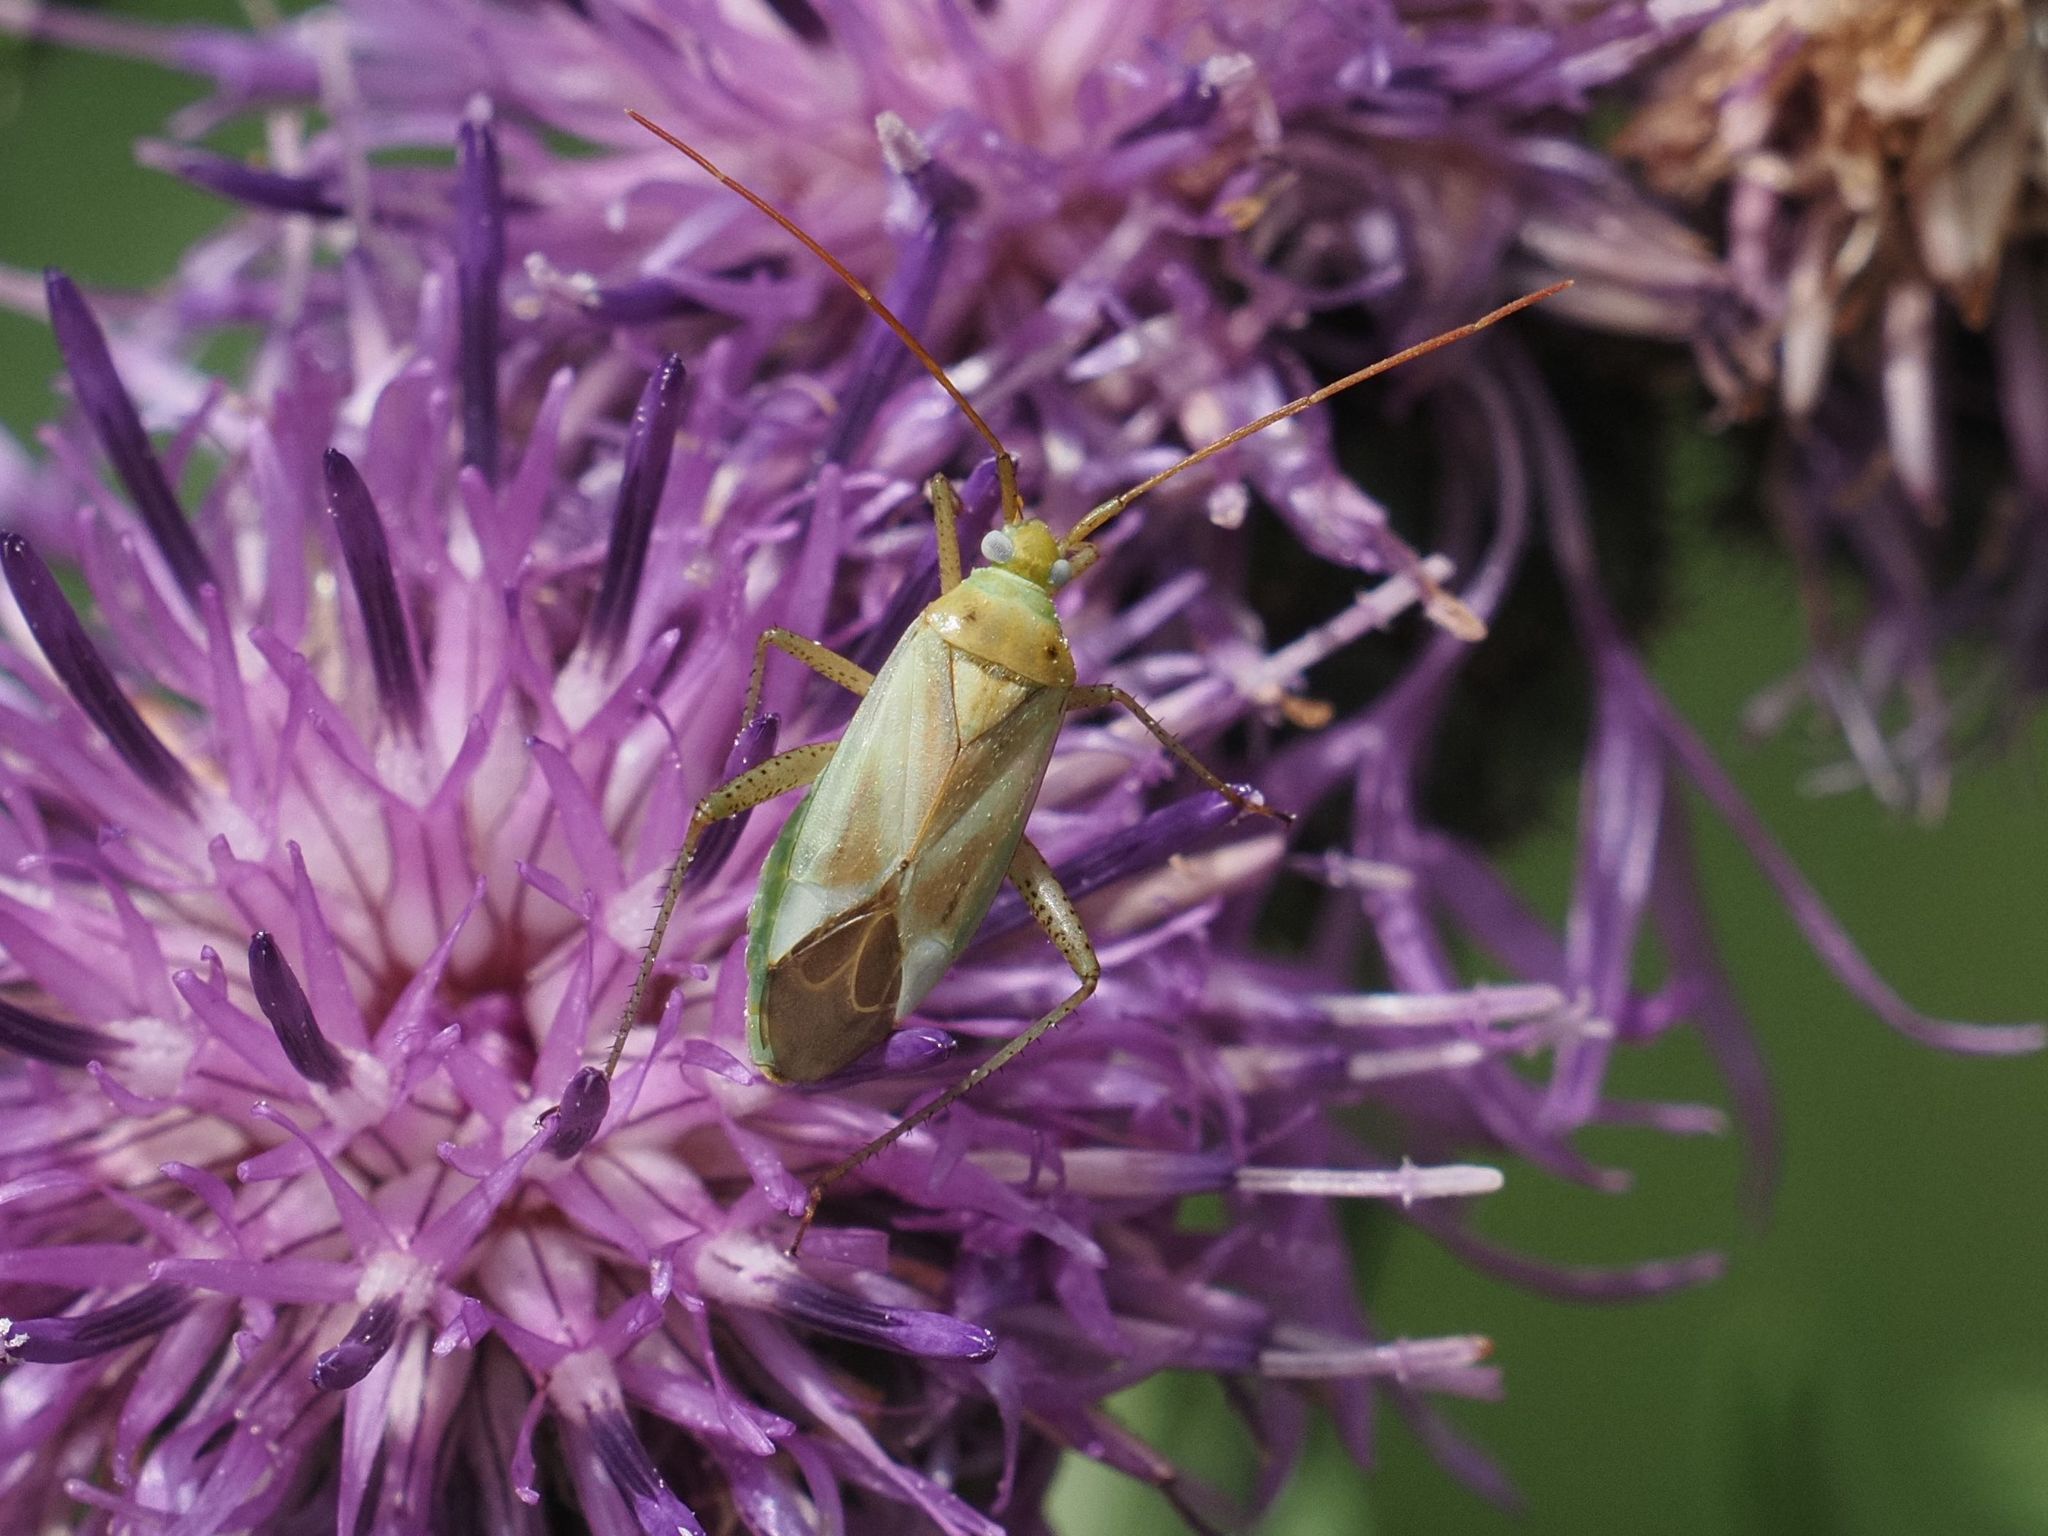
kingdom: Animalia
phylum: Arthropoda
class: Insecta
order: Hemiptera
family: Miridae
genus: Adelphocoris
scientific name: Adelphocoris lineolatus
